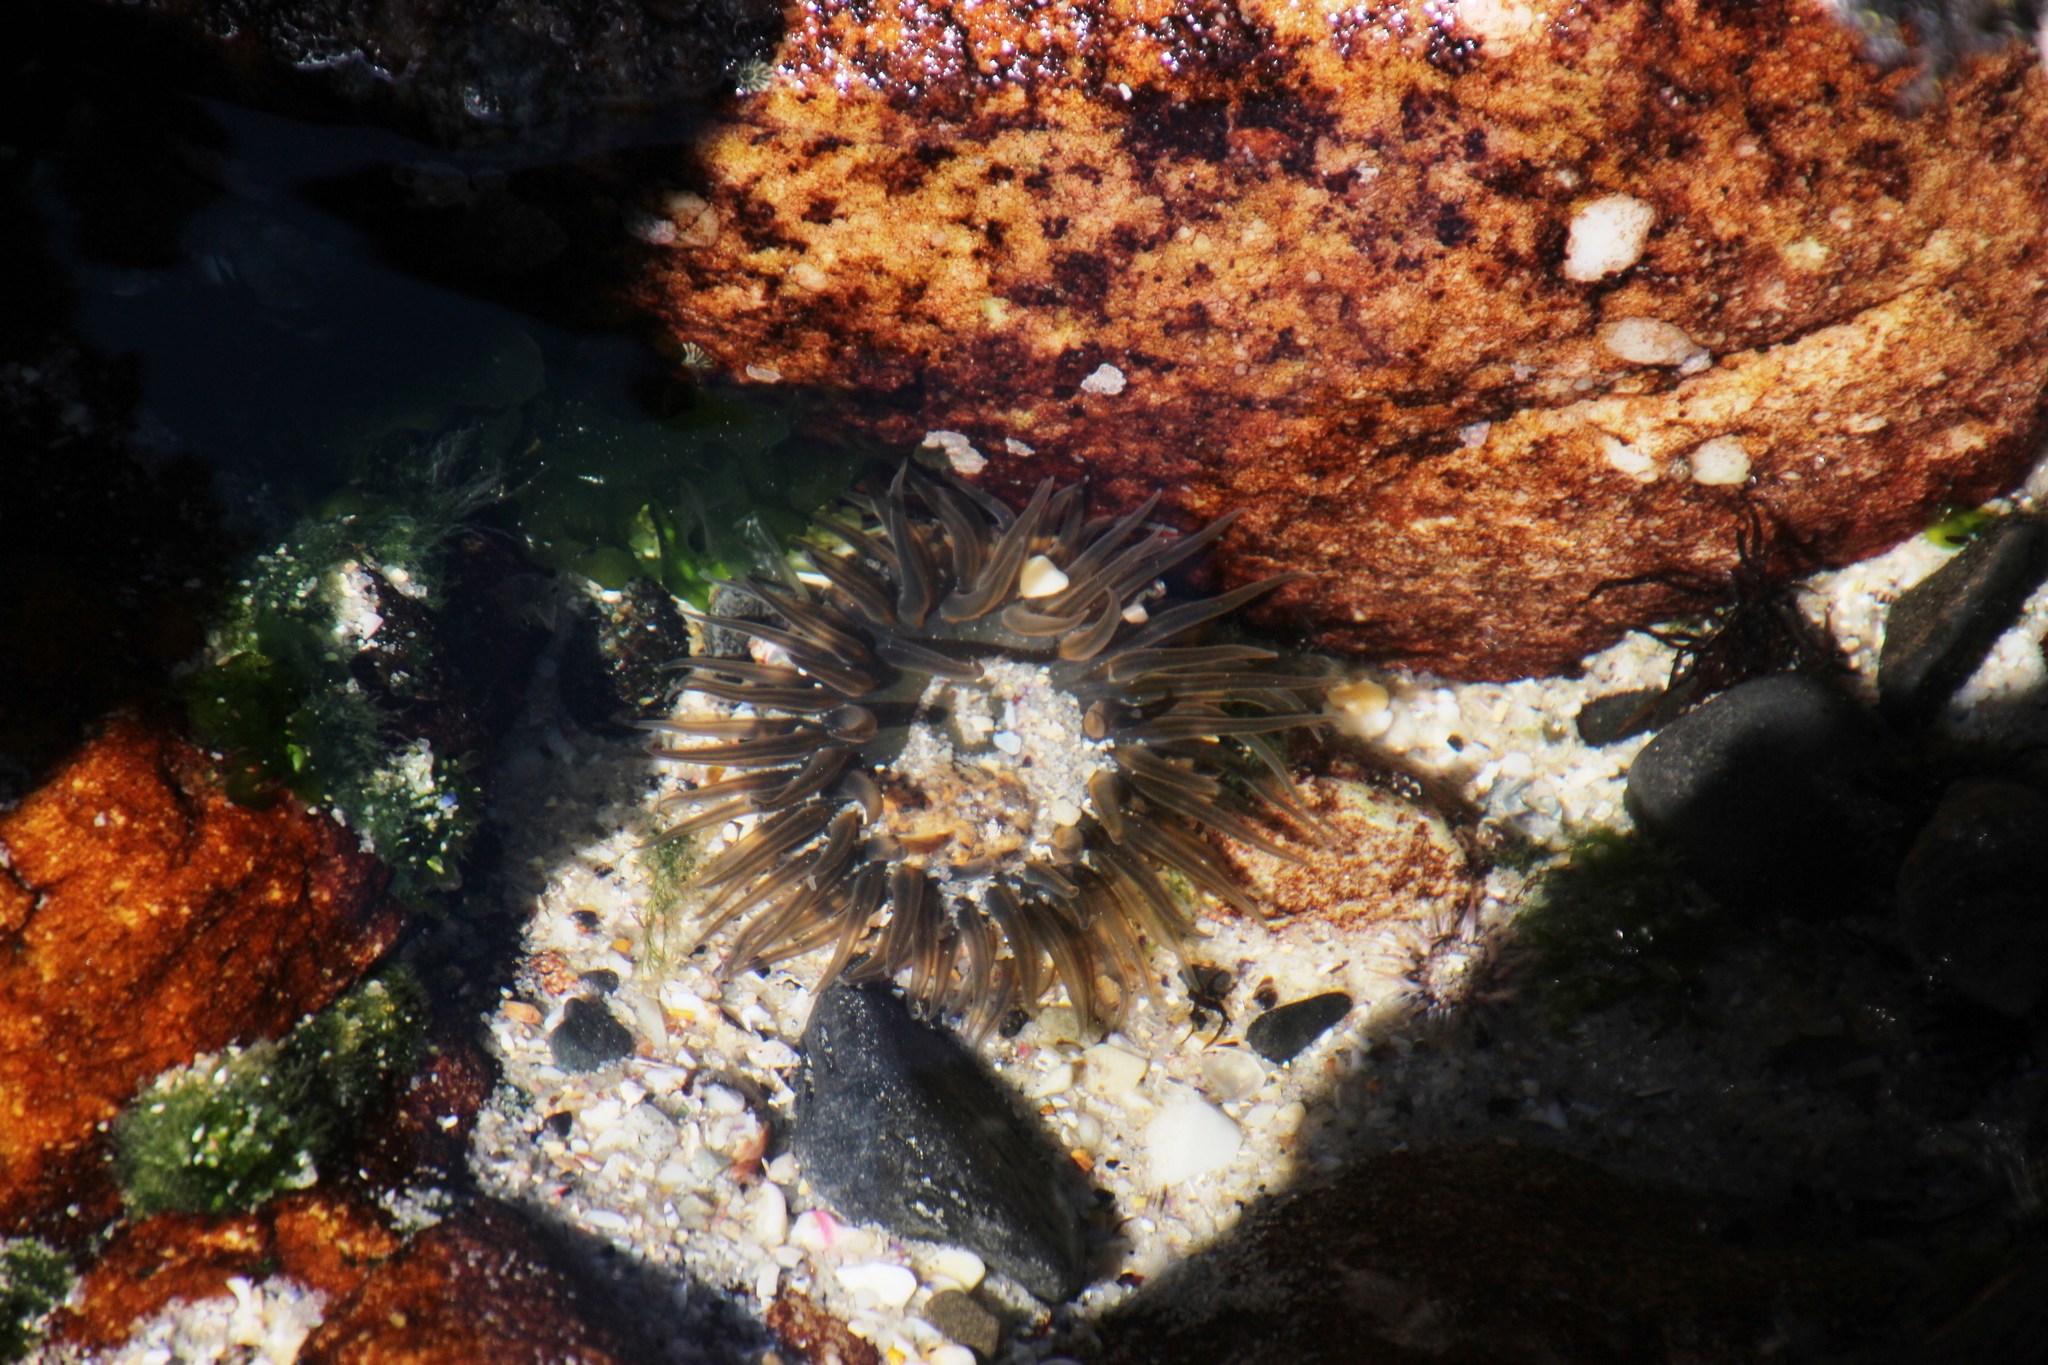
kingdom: Animalia
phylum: Cnidaria
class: Anthozoa
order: Actiniaria
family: Actiniidae
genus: Anthopleura
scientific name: Anthopleura michaelseni
